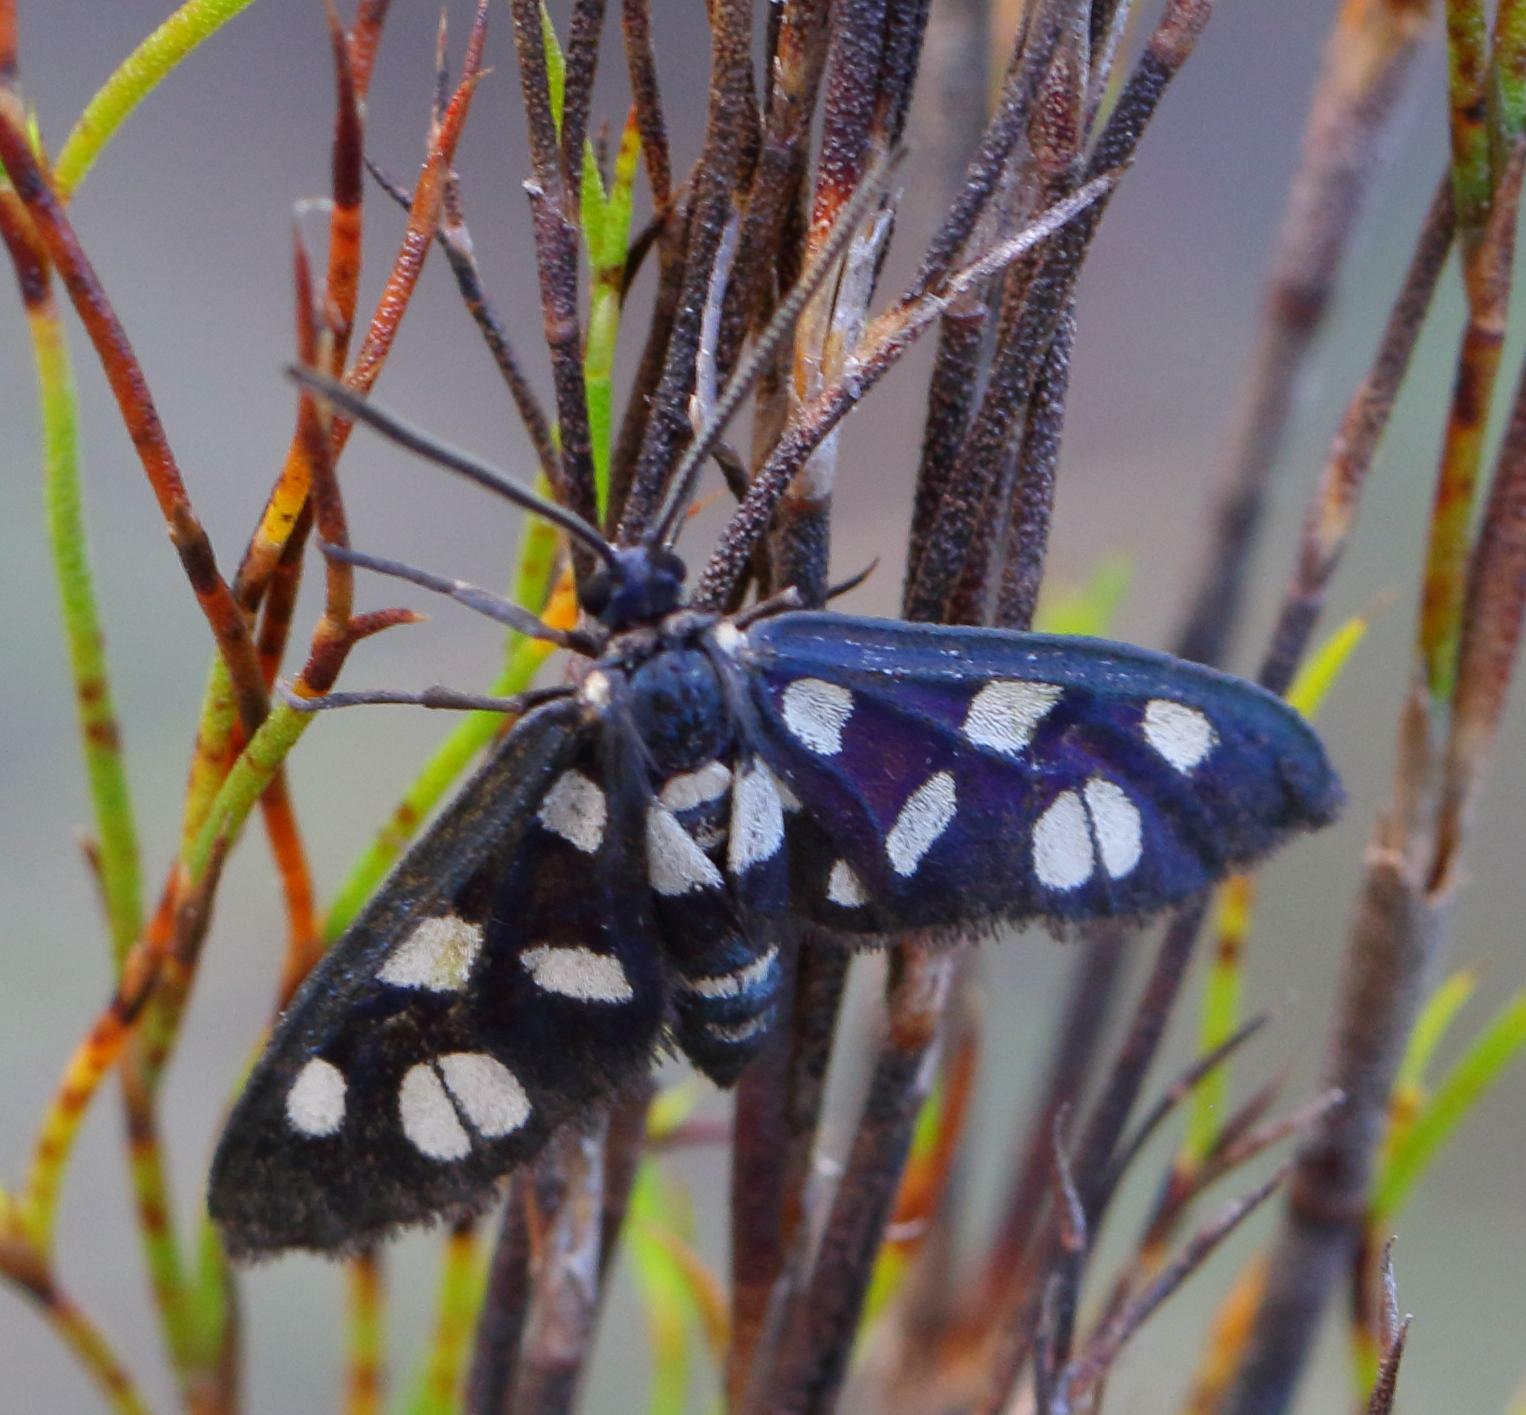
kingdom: Animalia
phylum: Arthropoda
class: Insecta
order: Lepidoptera
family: Erebidae
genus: Amata
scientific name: Amata karroana
